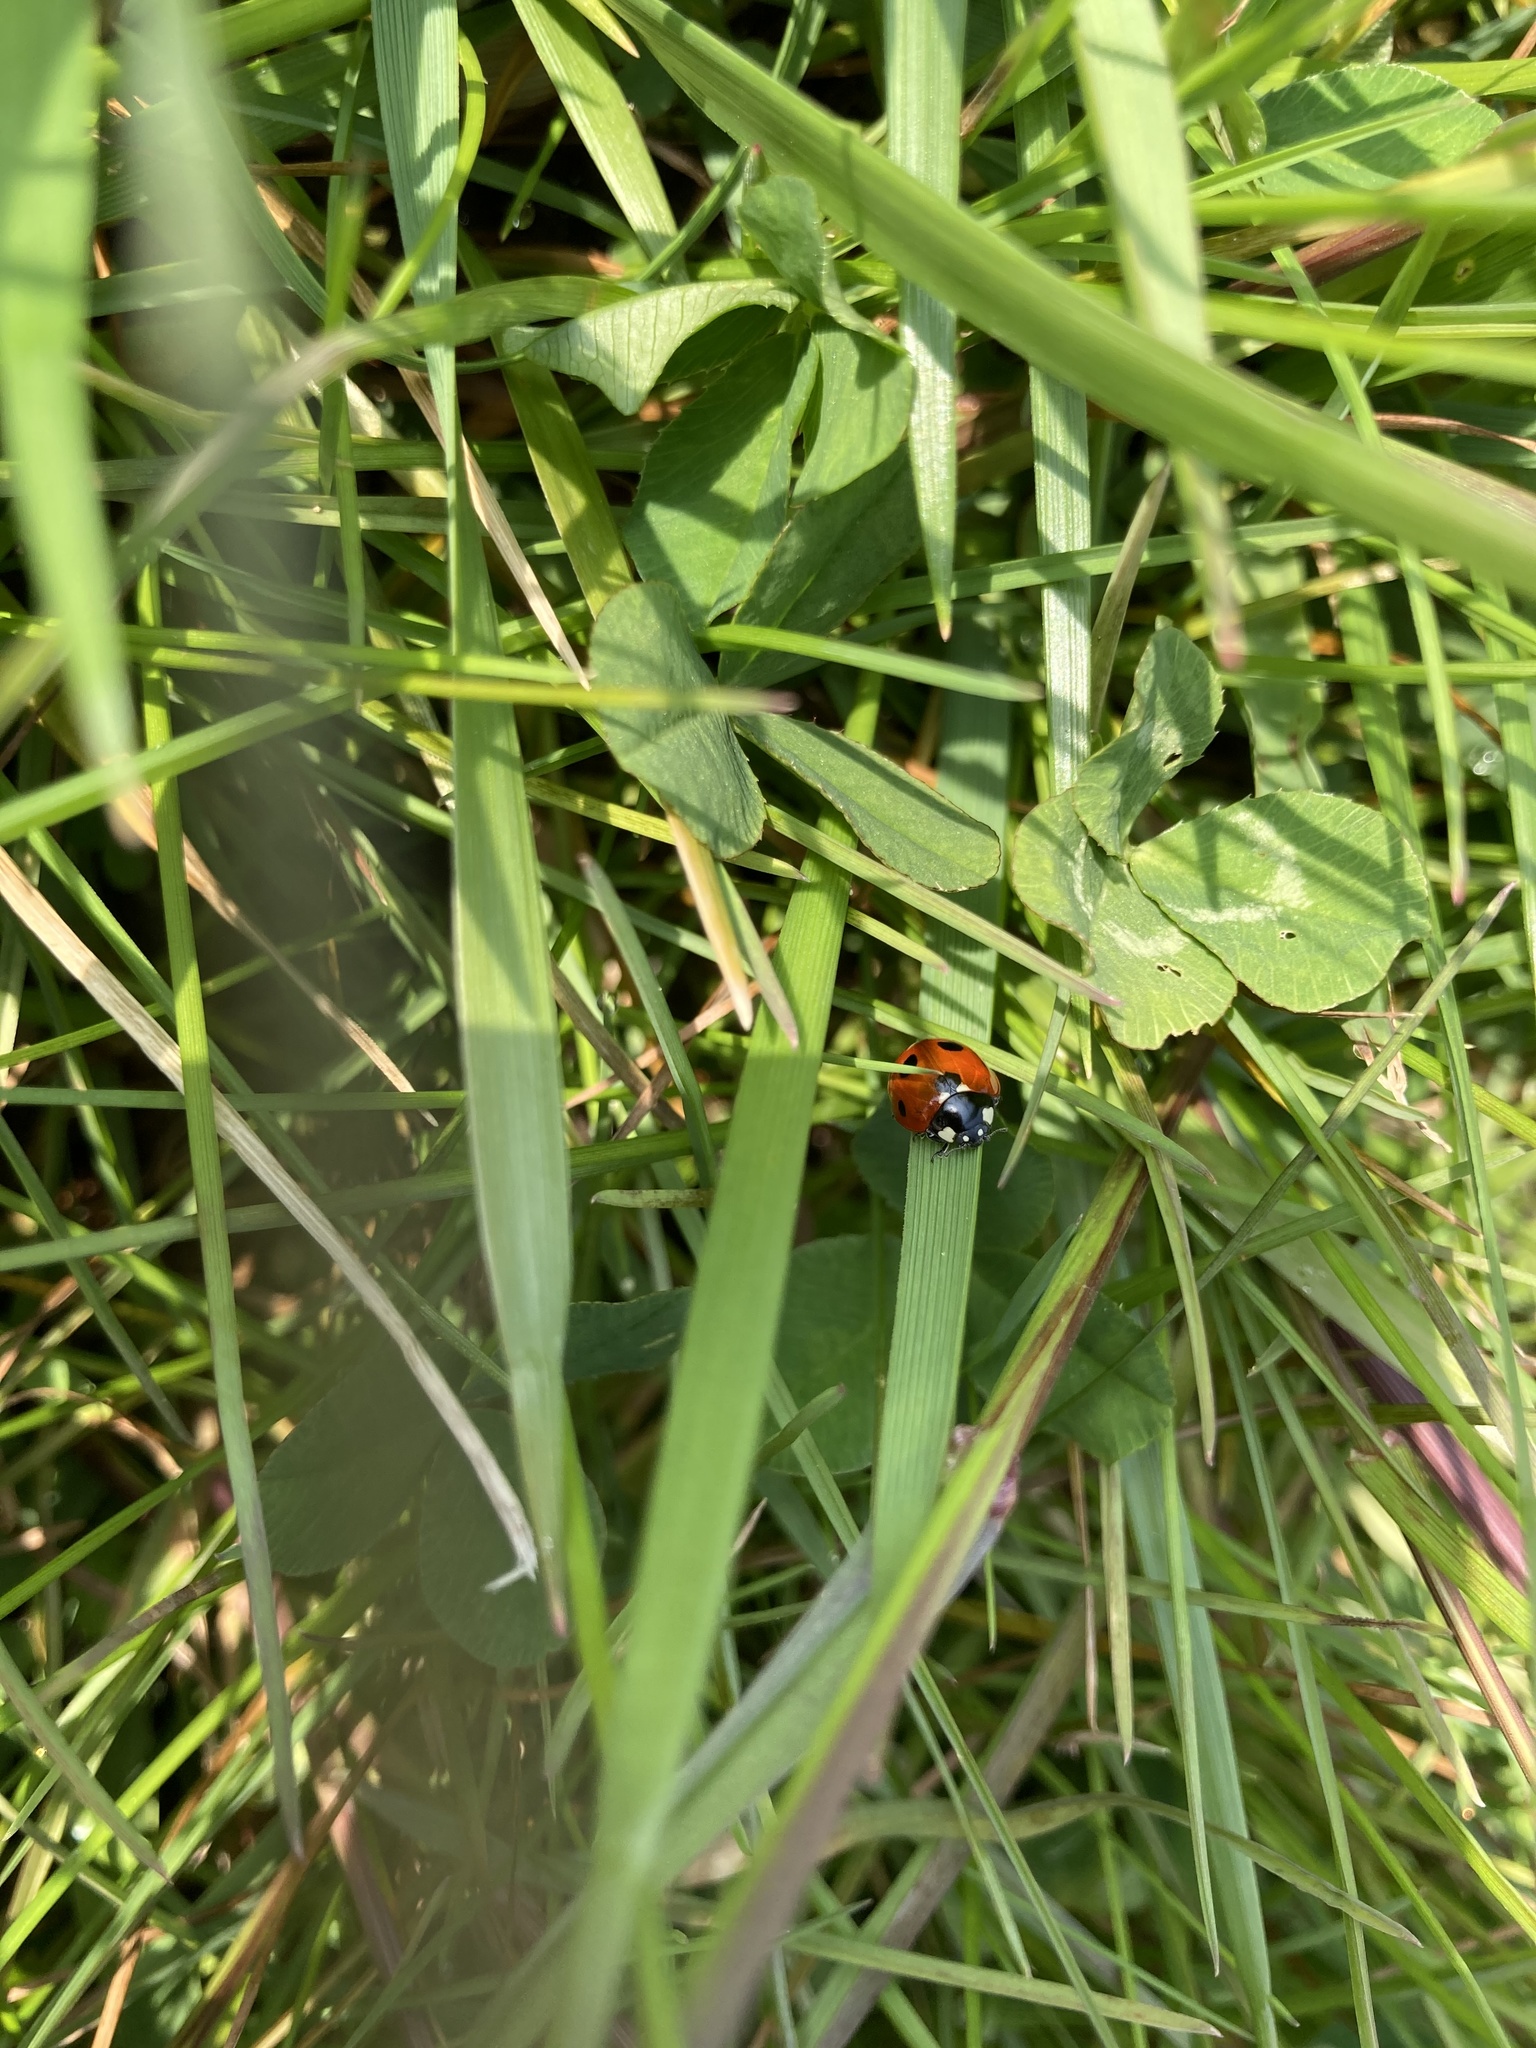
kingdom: Animalia
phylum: Arthropoda
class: Insecta
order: Coleoptera
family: Coccinellidae
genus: Coccinella
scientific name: Coccinella septempunctata
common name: Sevenspotted lady beetle
